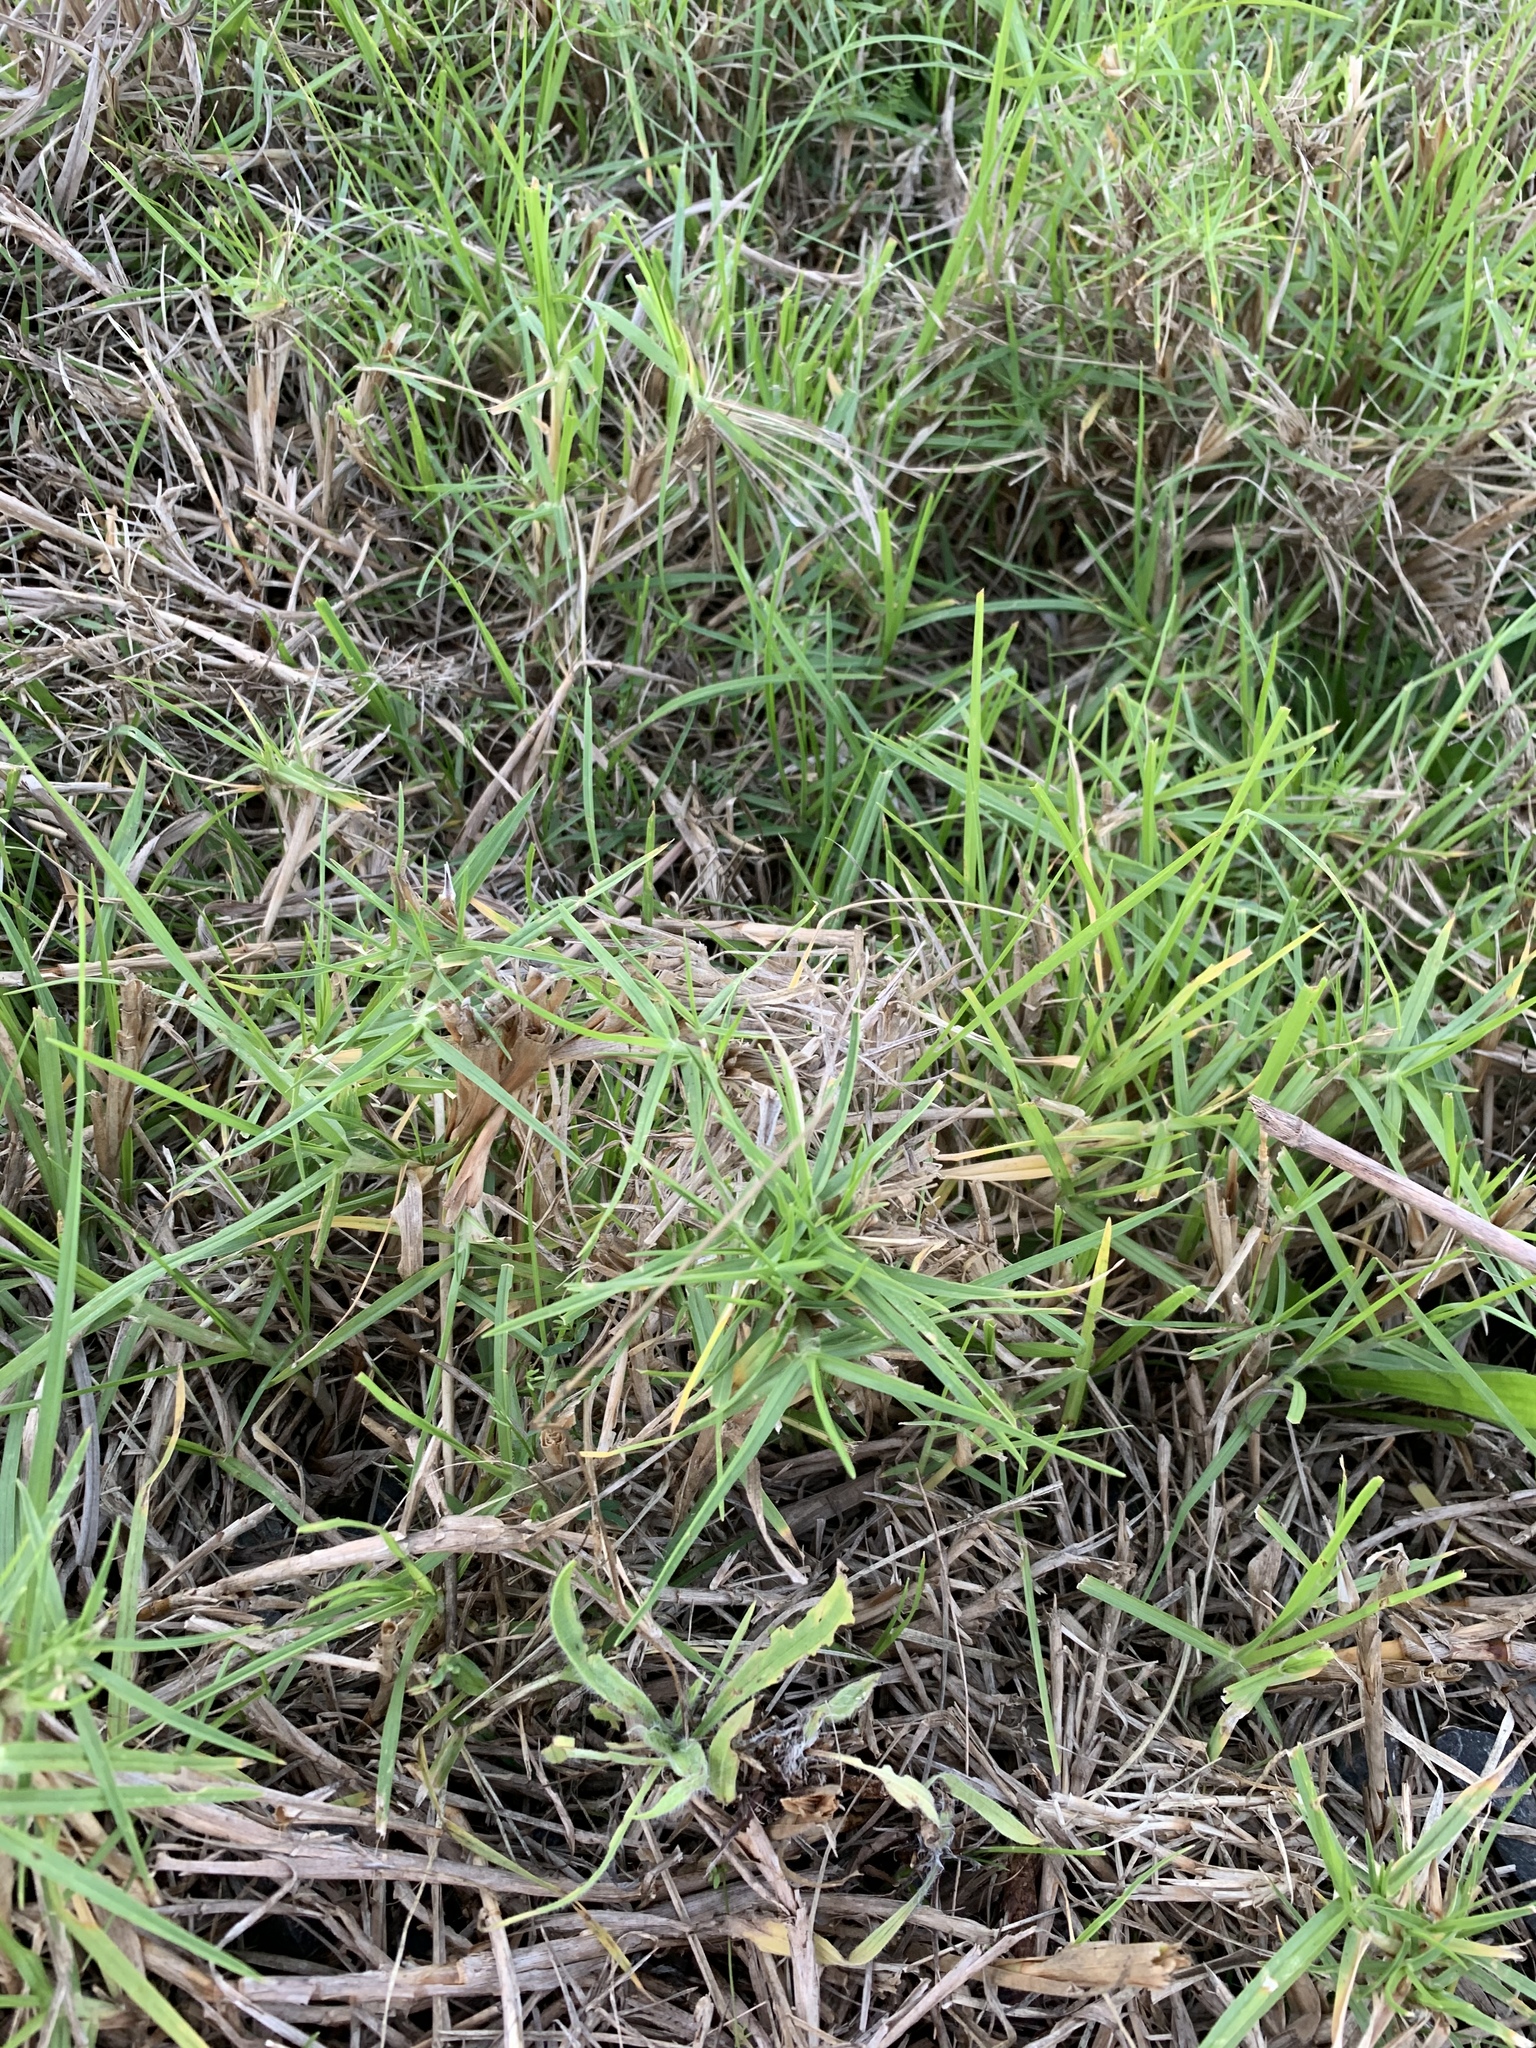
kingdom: Plantae
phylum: Tracheophyta
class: Liliopsida
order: Poales
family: Poaceae
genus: Cenchrus
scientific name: Cenchrus clandestinus
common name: Kikuyugrass
